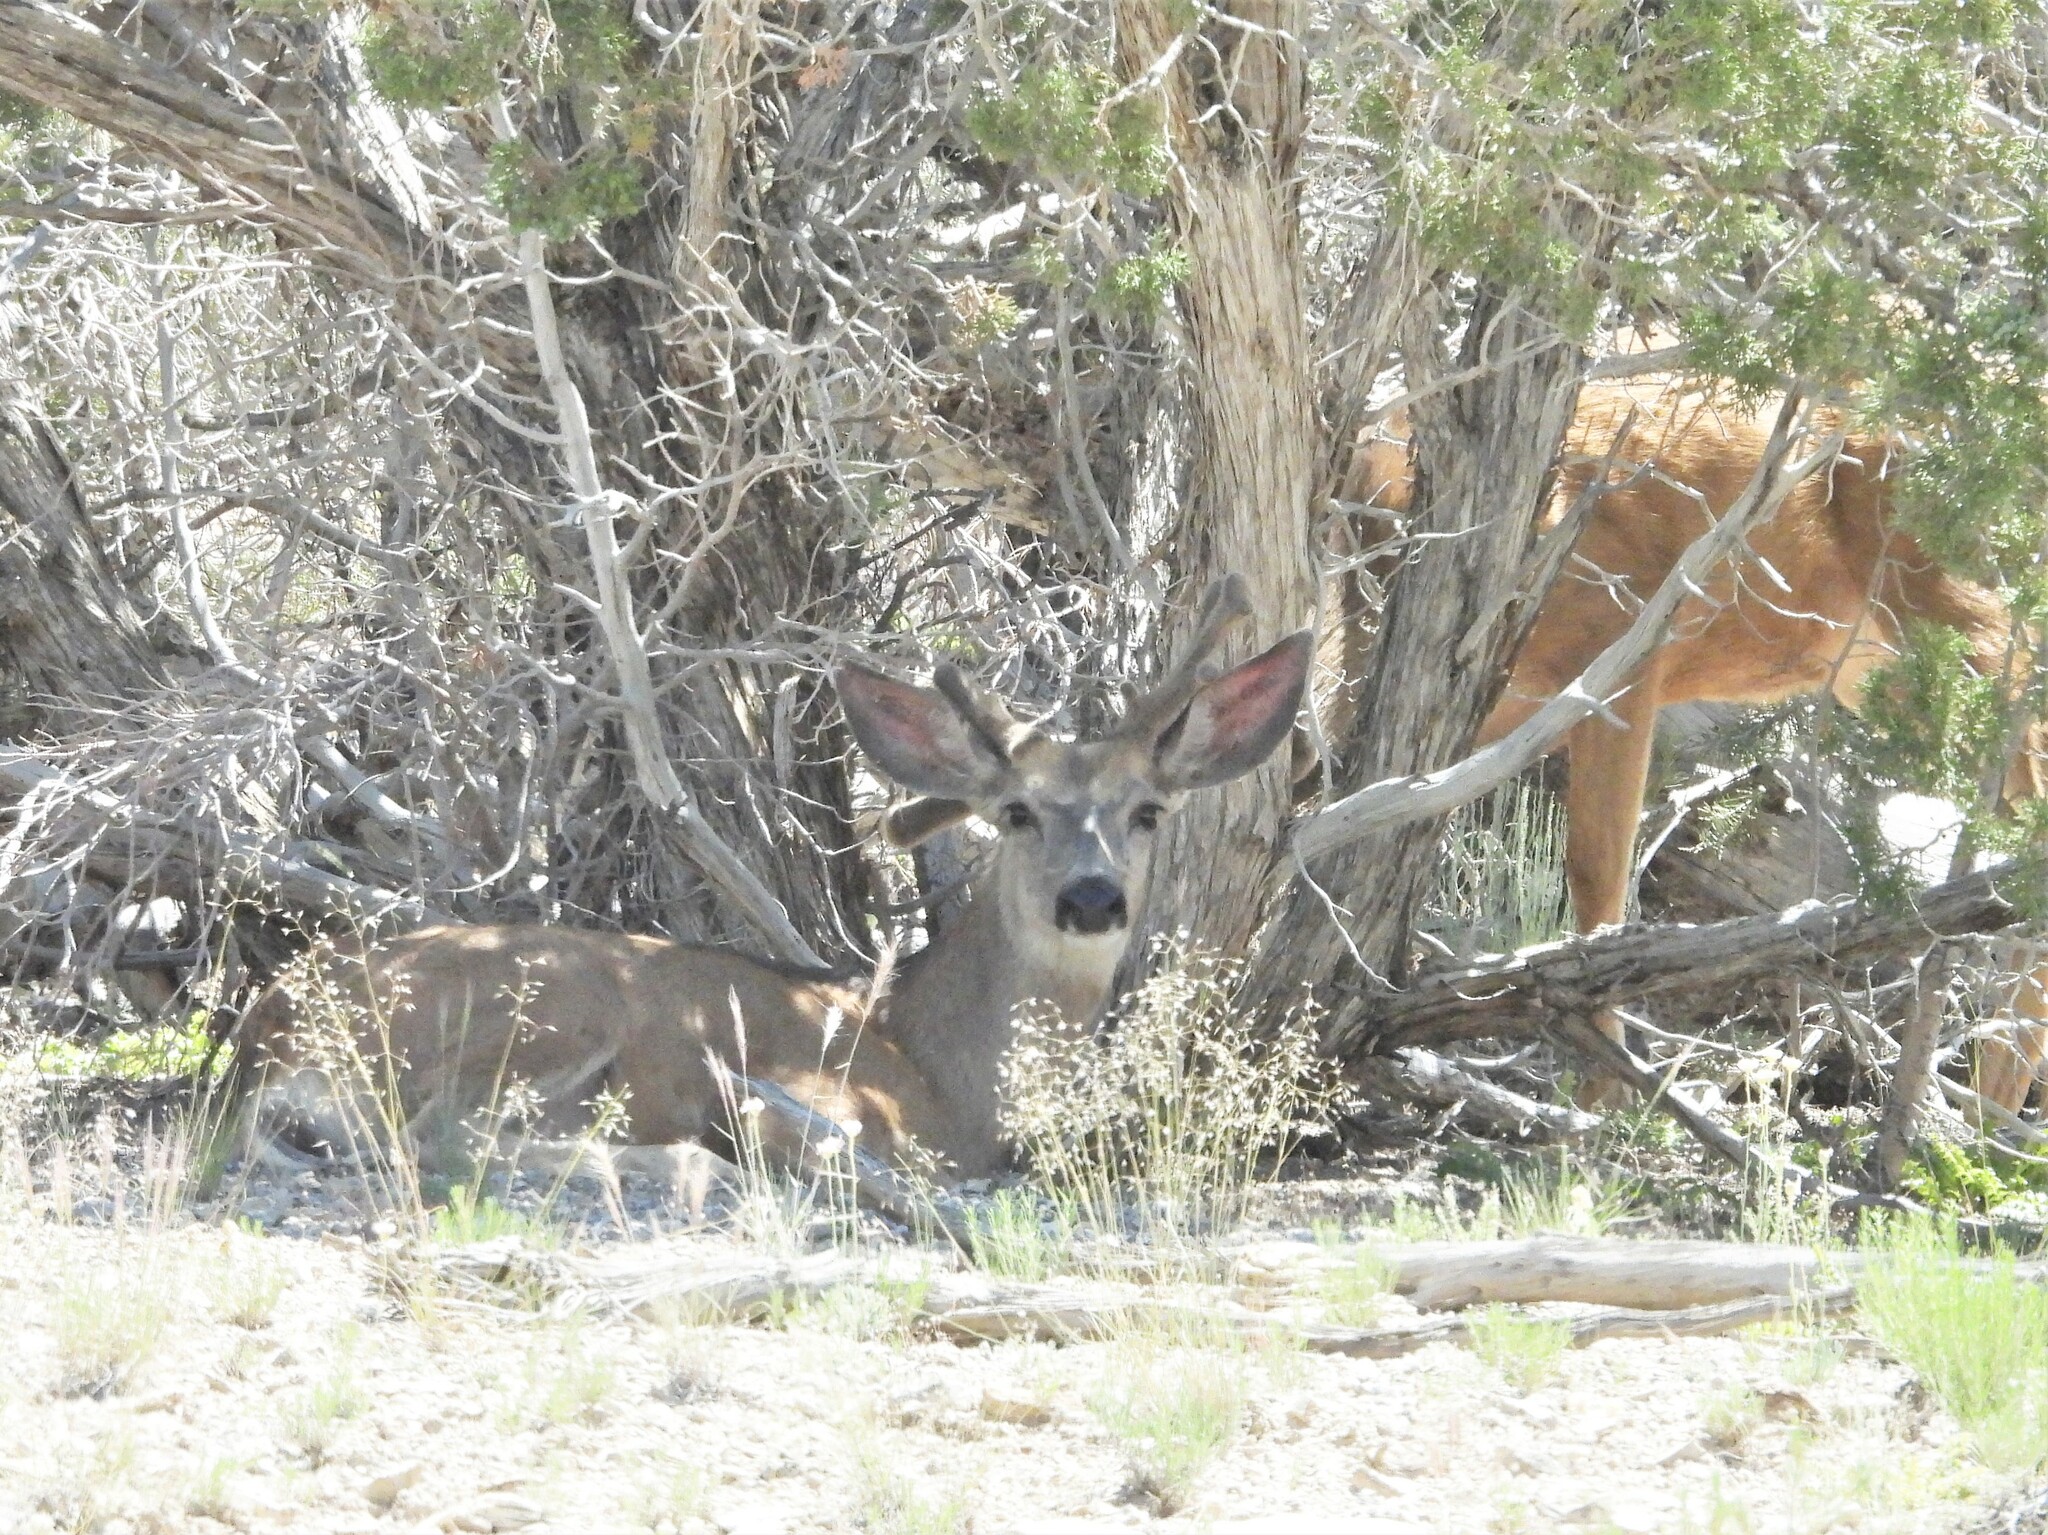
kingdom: Animalia
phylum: Chordata
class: Mammalia
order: Artiodactyla
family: Cervidae
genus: Odocoileus
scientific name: Odocoileus hemionus
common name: Mule deer
